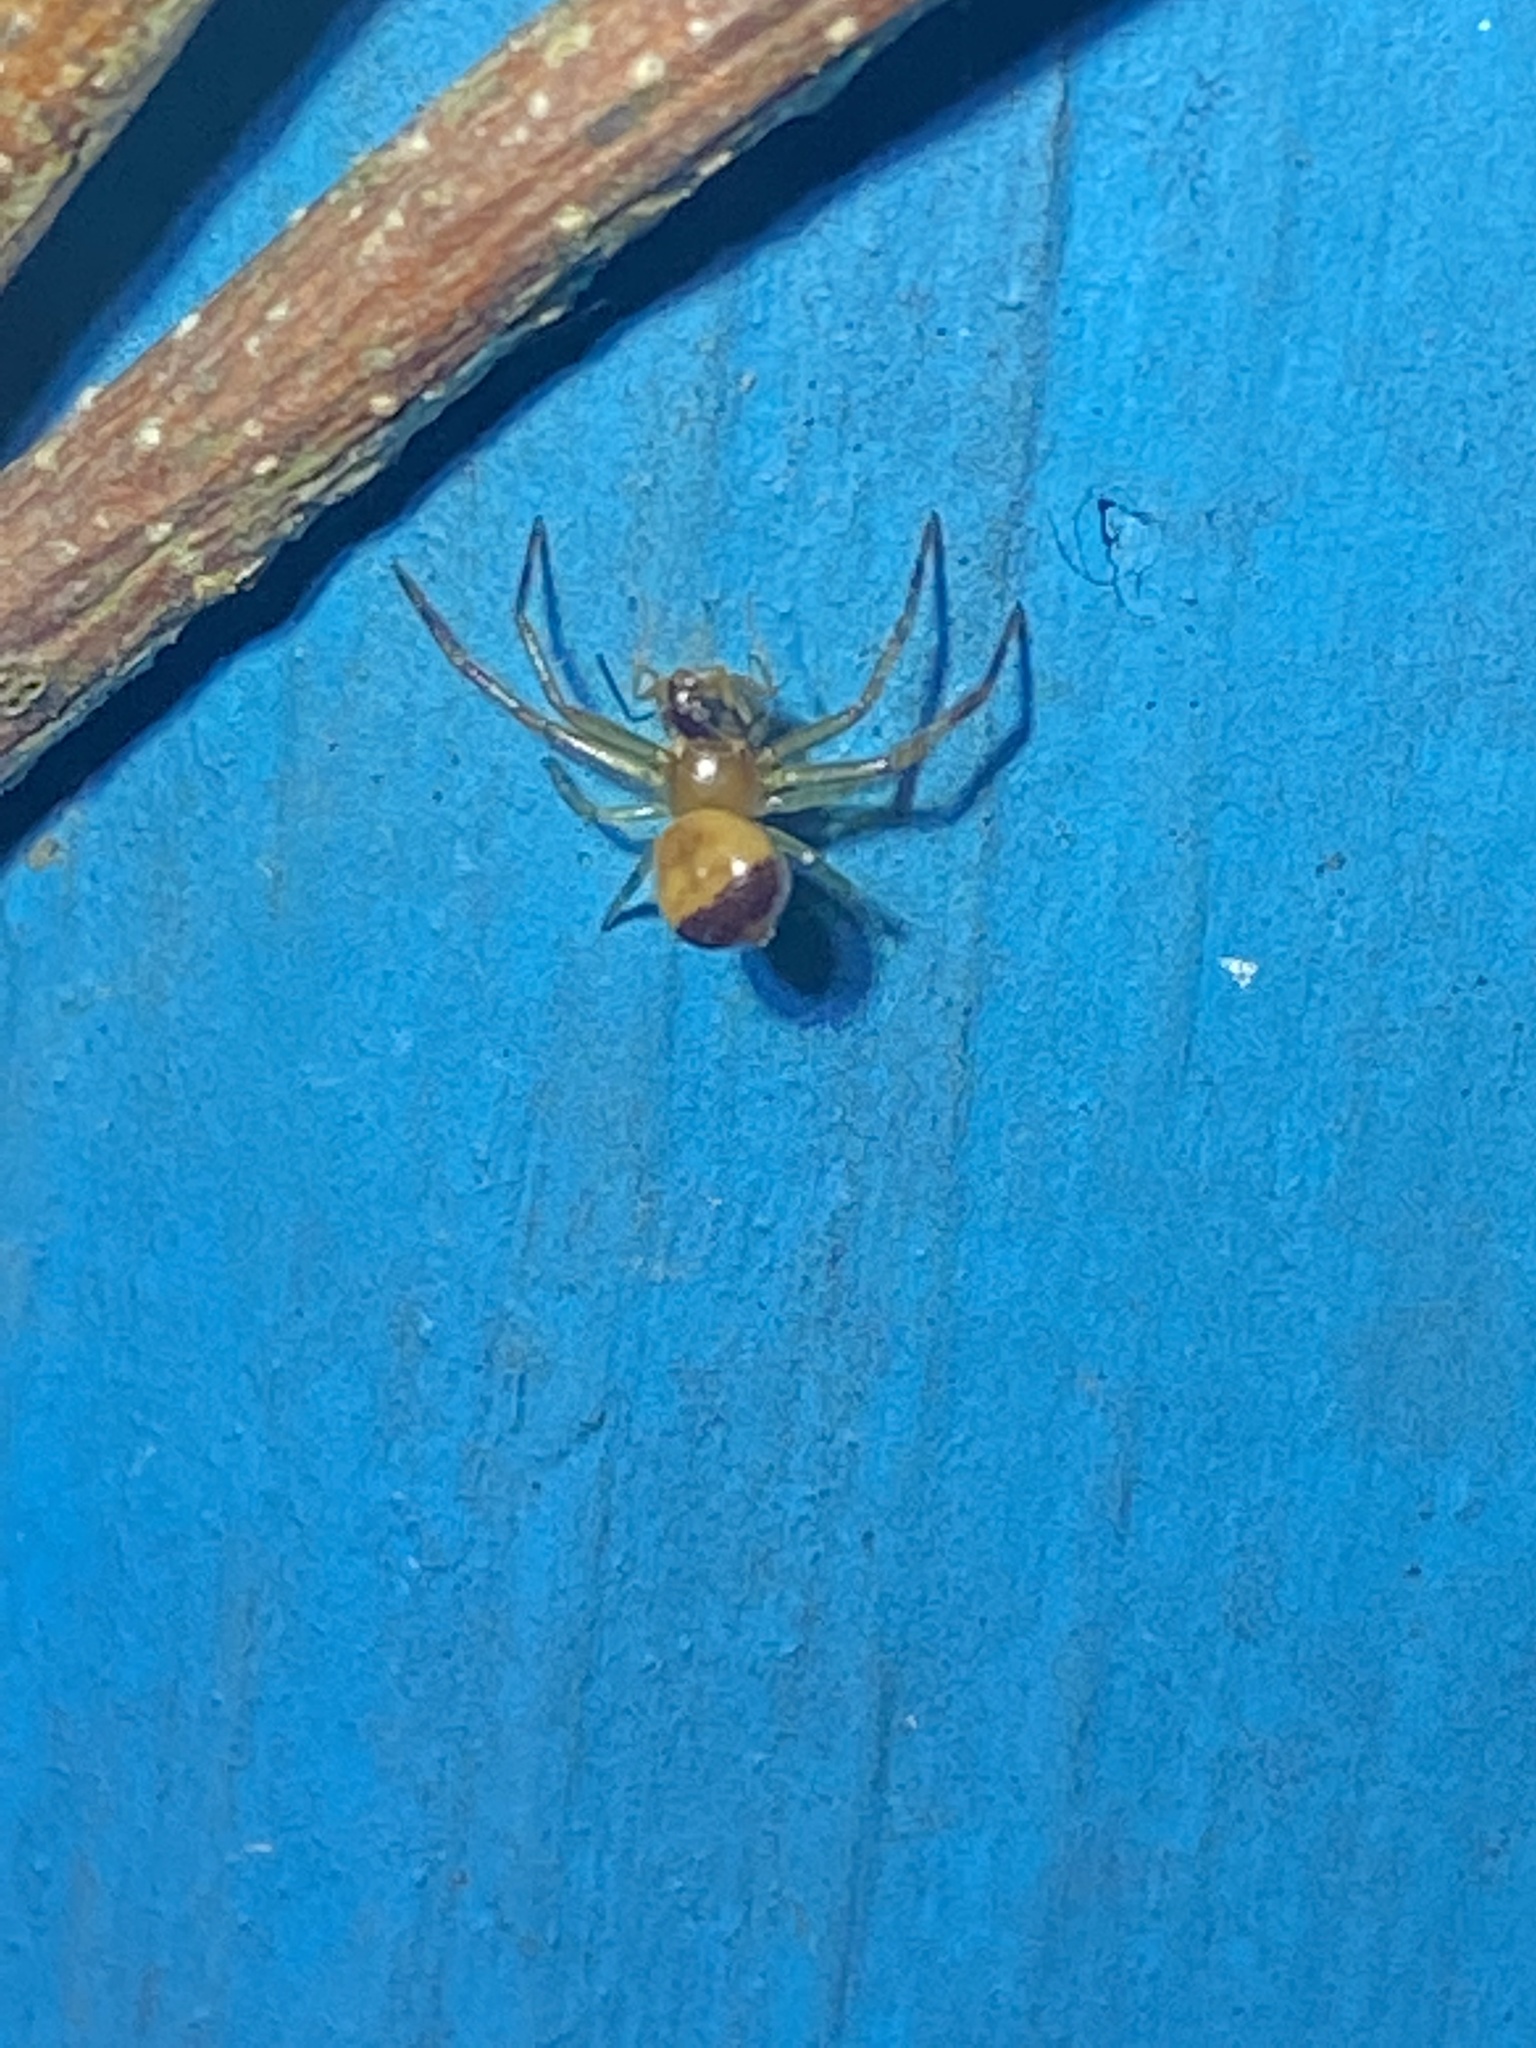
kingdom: Animalia
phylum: Arthropoda
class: Arachnida
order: Araneae
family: Thomisidae
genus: Synema
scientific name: Synema parvulum
